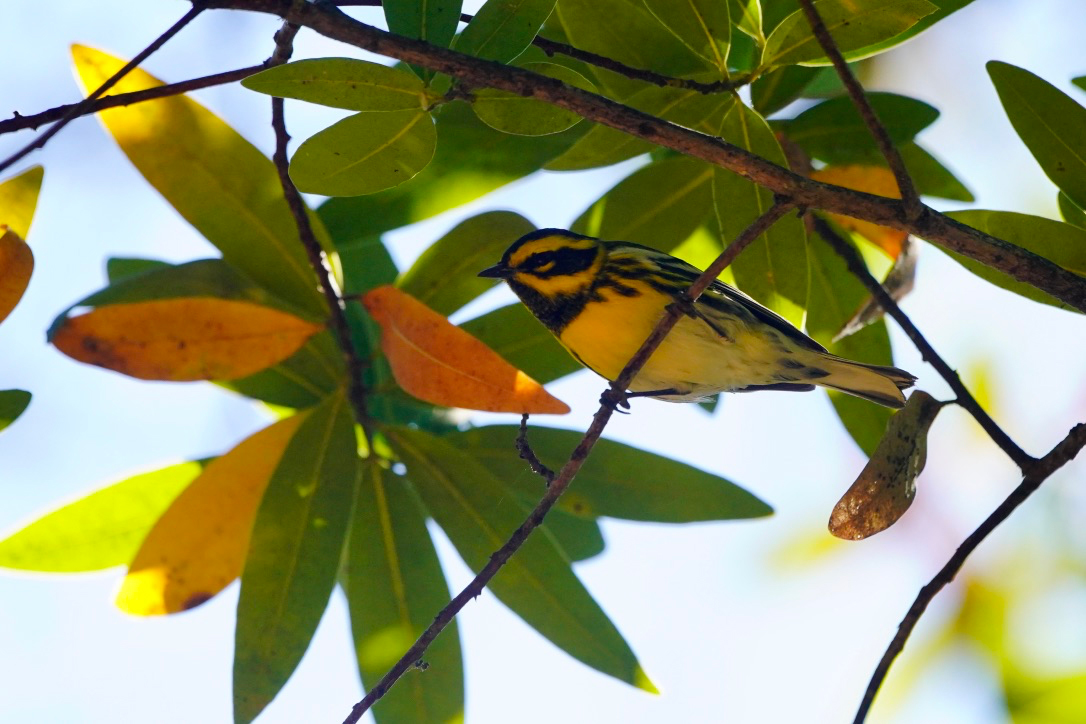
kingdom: Animalia
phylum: Chordata
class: Aves
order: Passeriformes
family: Parulidae
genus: Setophaga
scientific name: Setophaga townsendi
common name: Townsend's warbler
